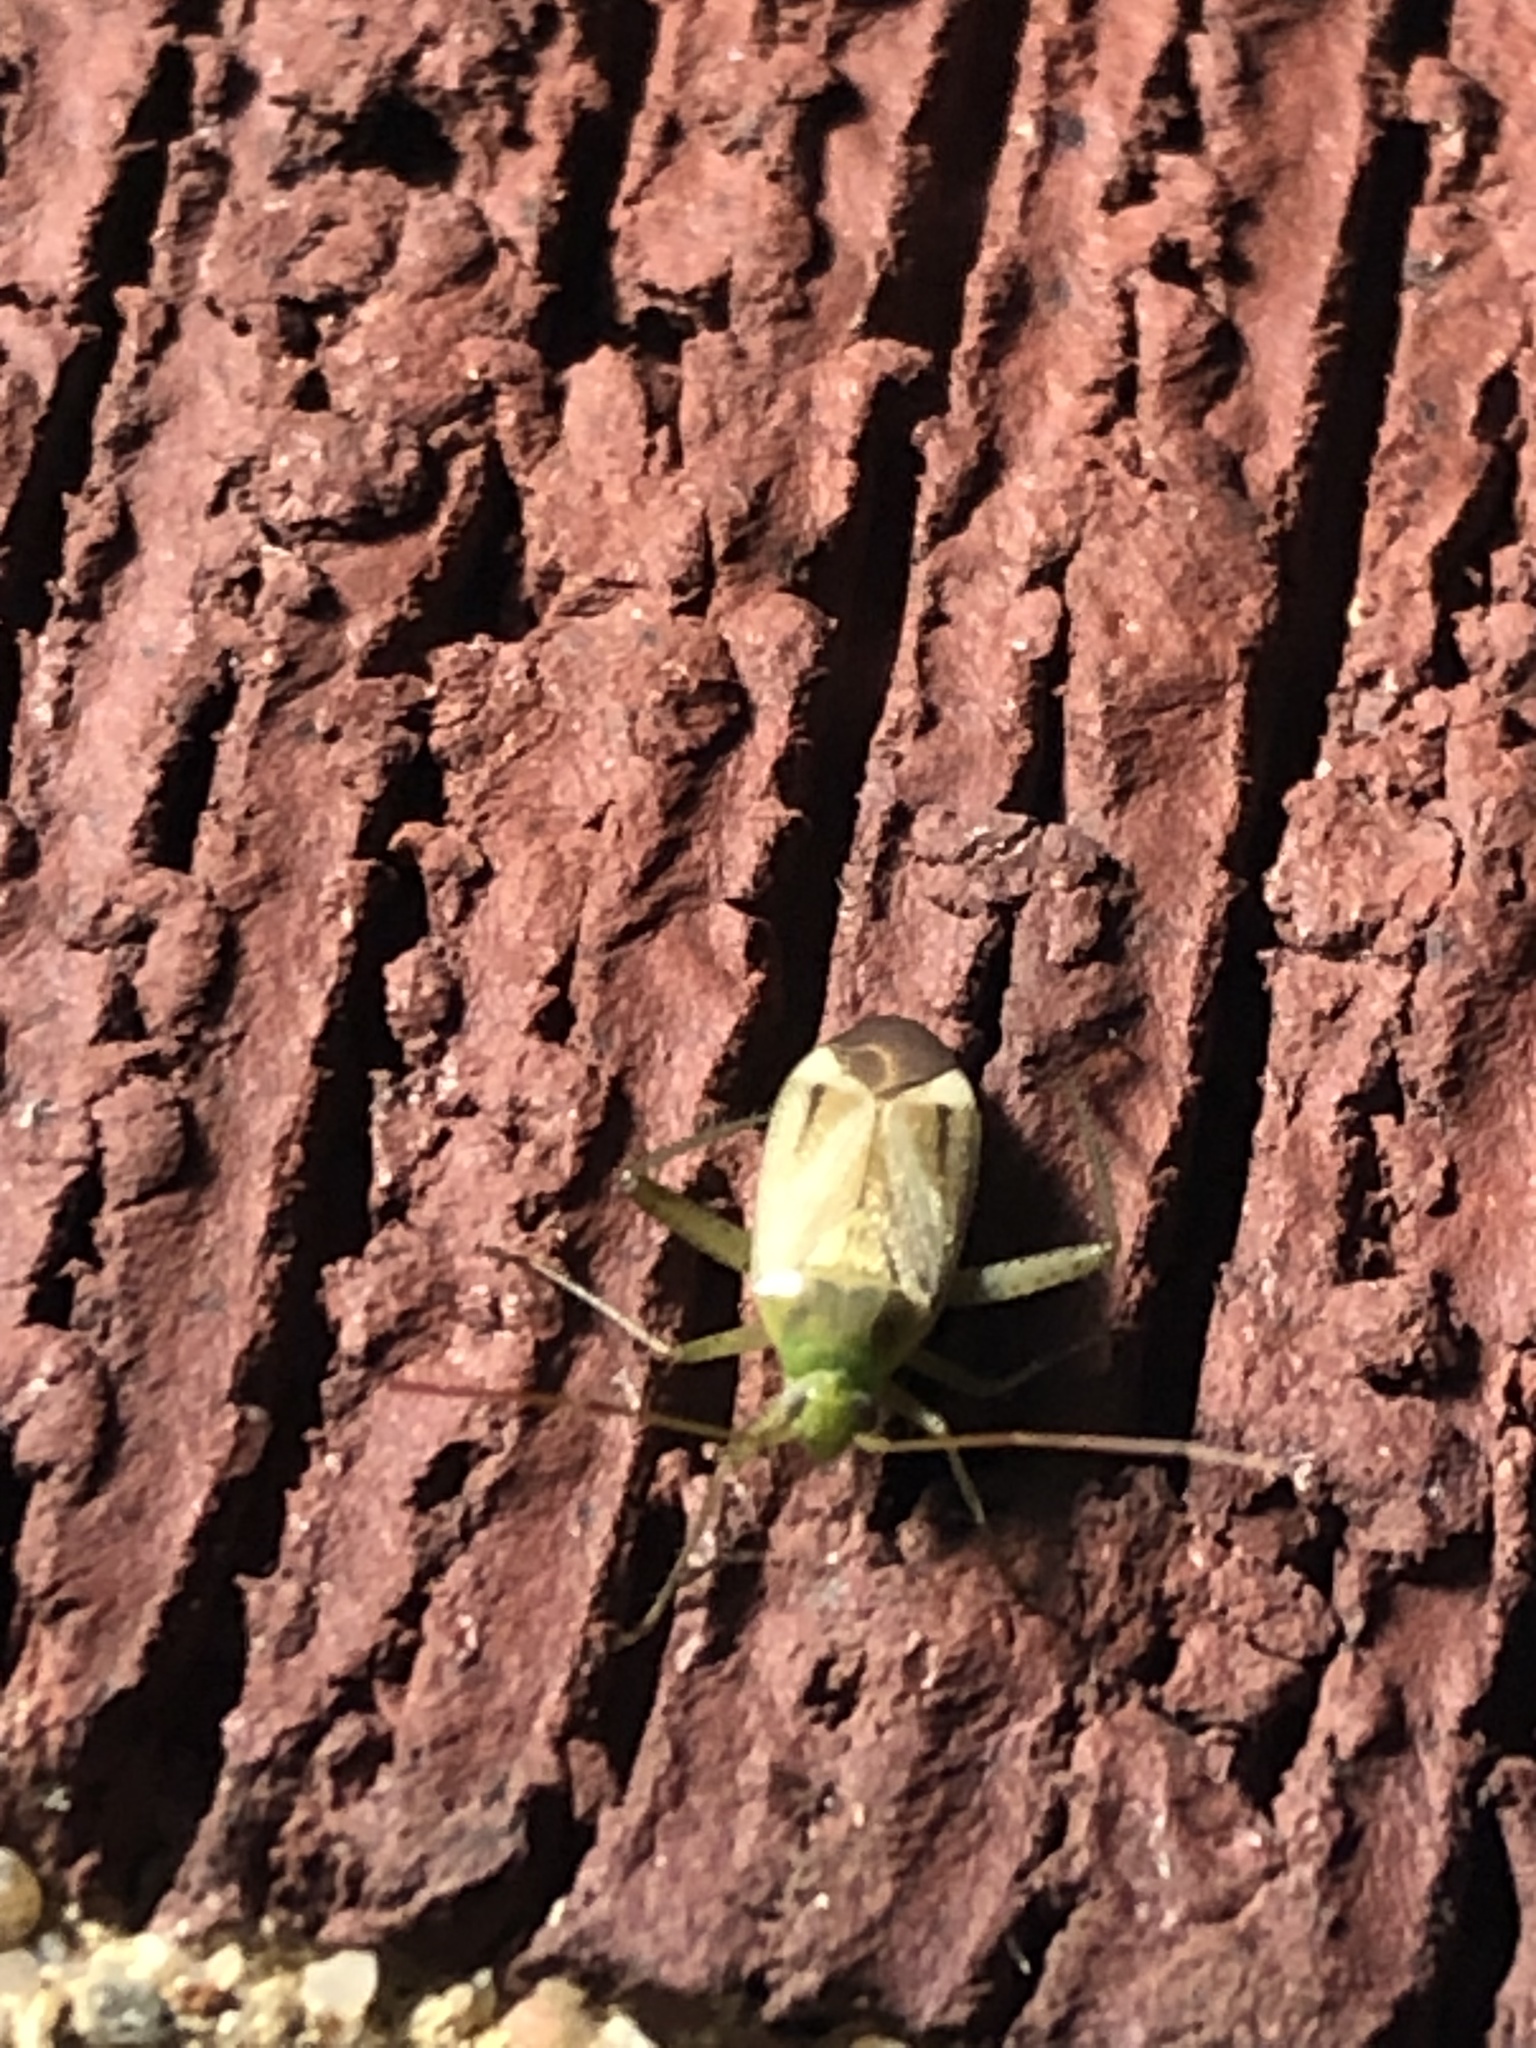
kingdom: Animalia
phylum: Arthropoda
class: Insecta
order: Hemiptera
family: Miridae
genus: Adelphocoris
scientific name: Adelphocoris lineolatus
